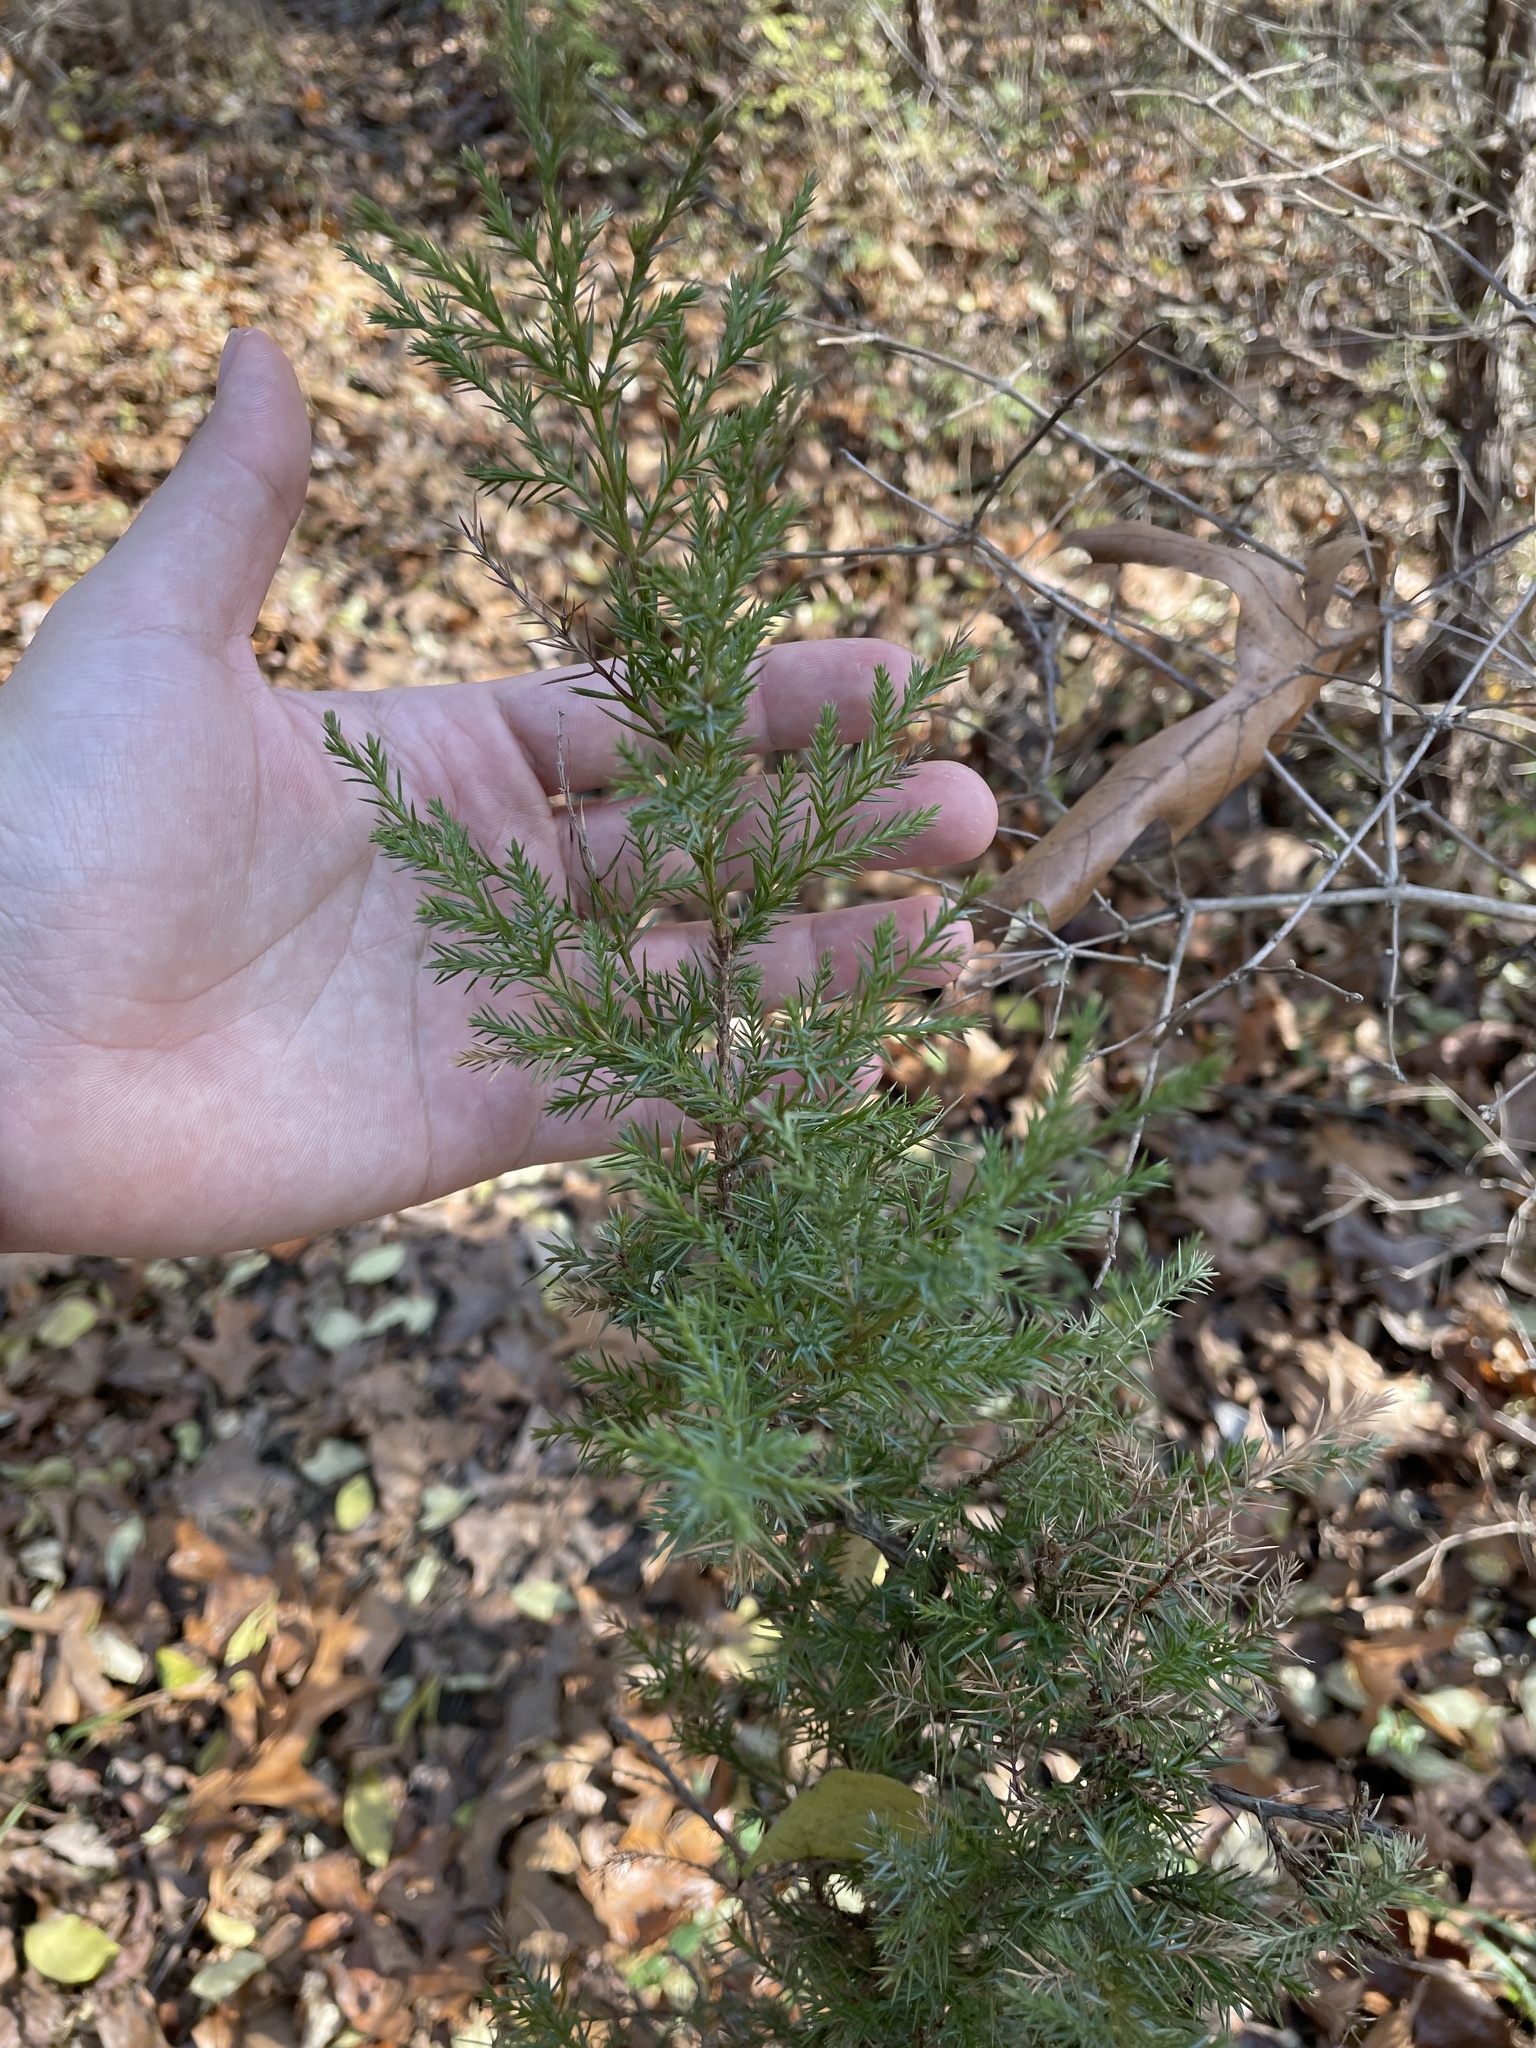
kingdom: Plantae
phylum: Tracheophyta
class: Pinopsida
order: Pinales
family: Cupressaceae
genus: Juniperus
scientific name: Juniperus virginiana
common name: Red juniper
